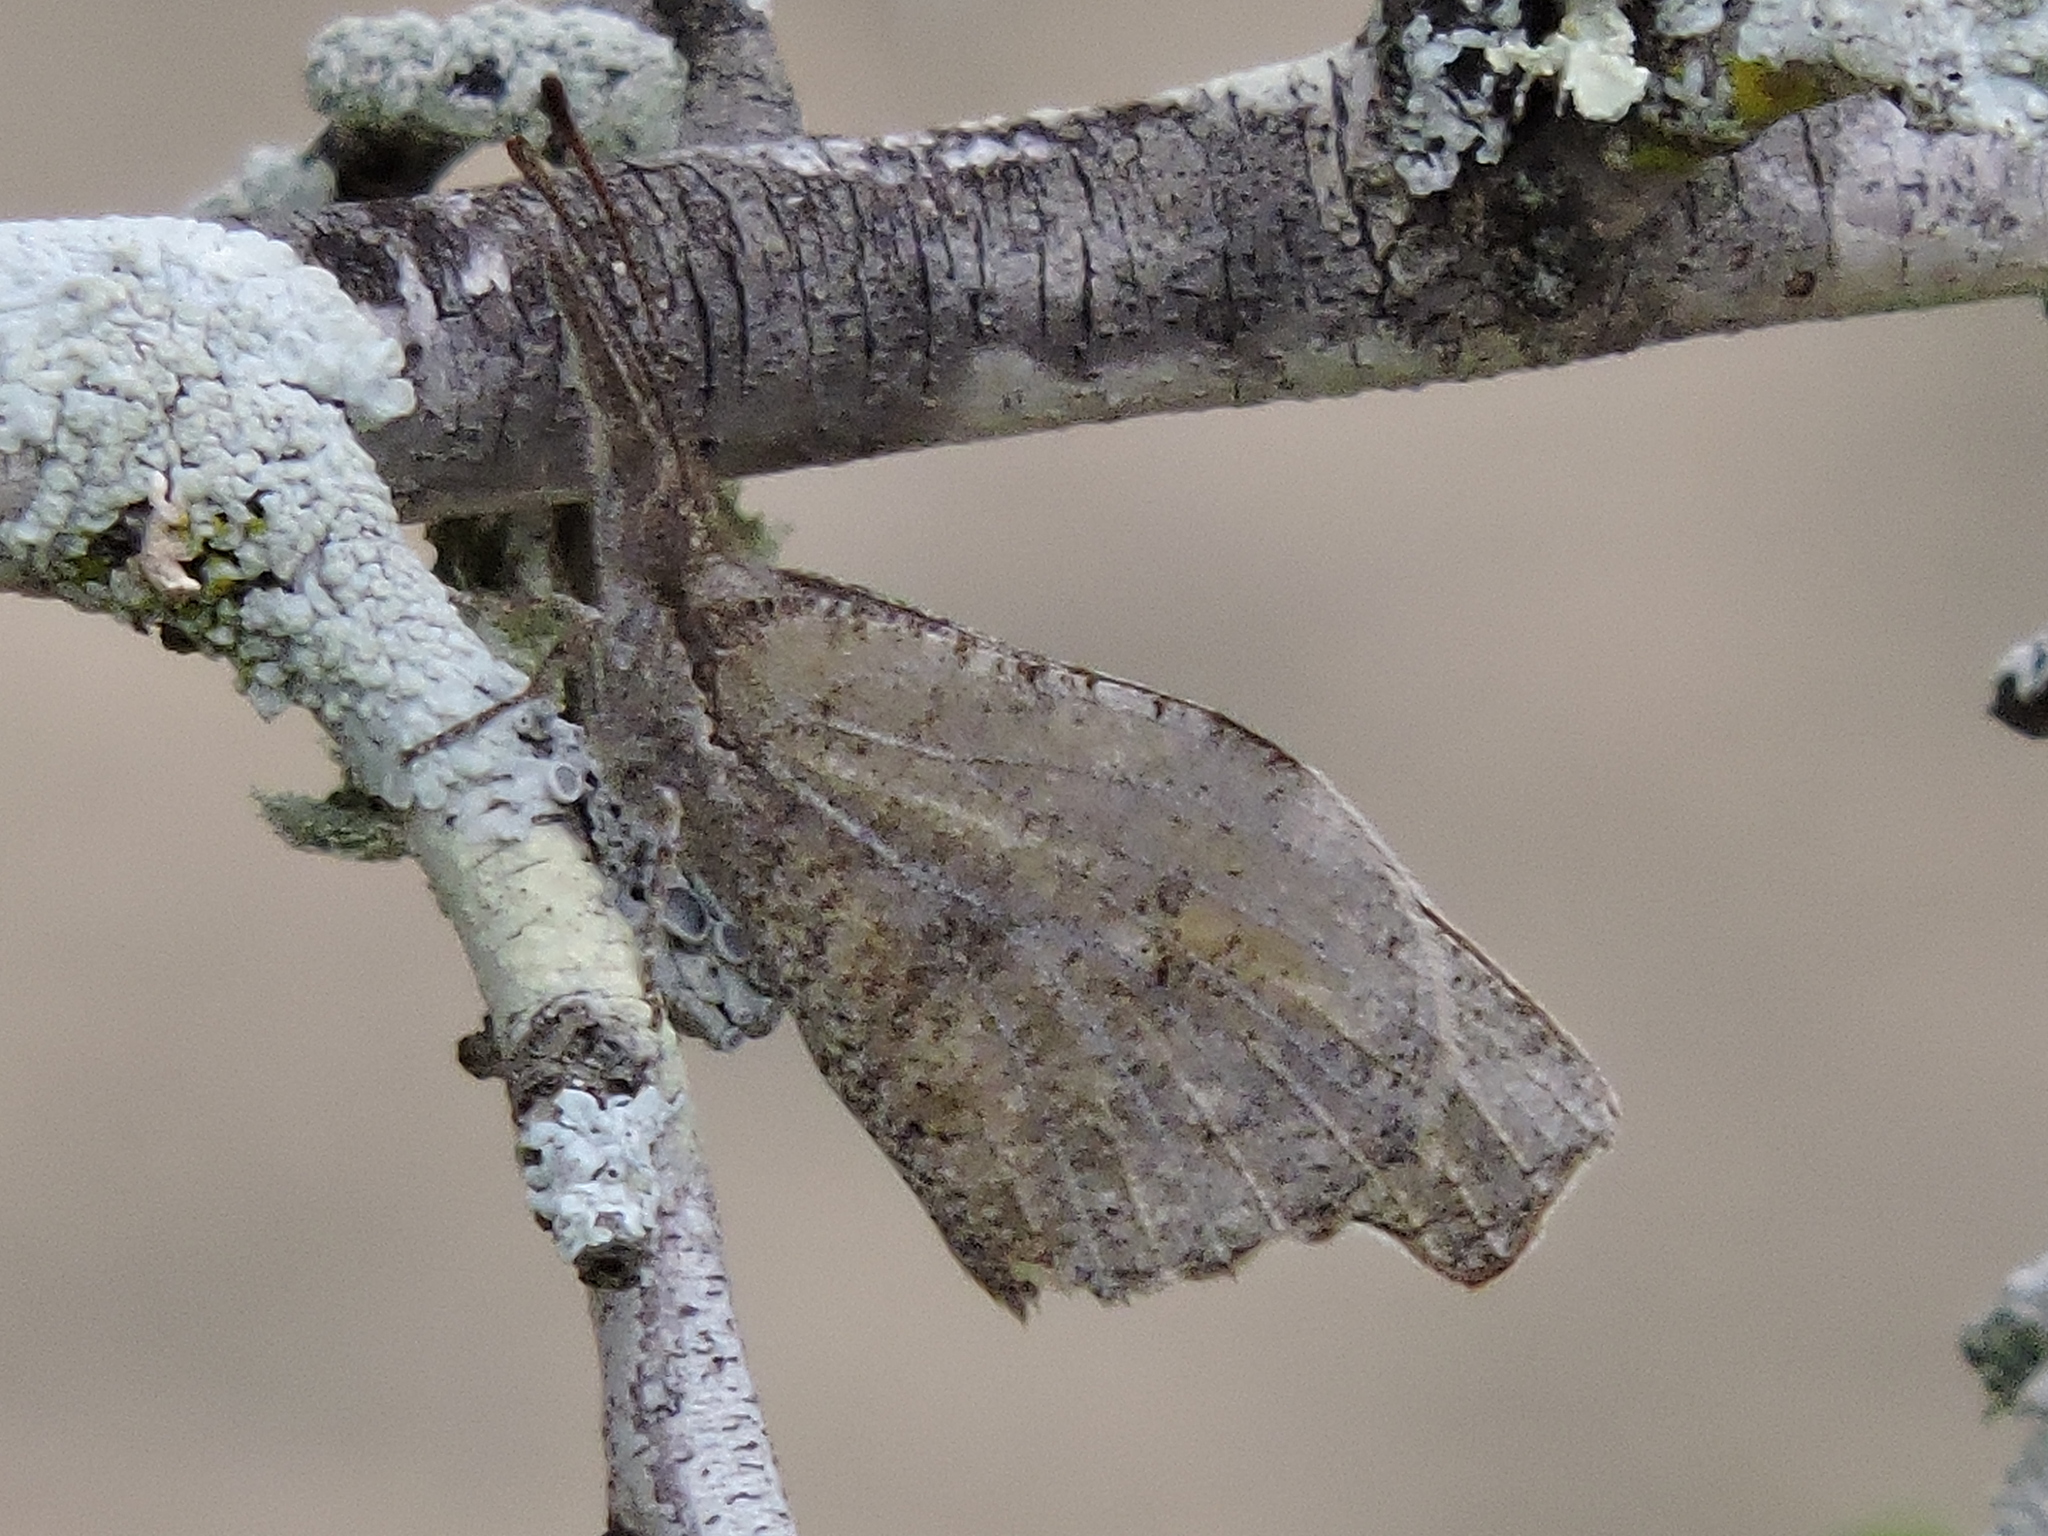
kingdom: Animalia
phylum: Arthropoda
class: Insecta
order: Lepidoptera
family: Nymphalidae
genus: Libytheana
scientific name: Libytheana carinenta
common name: American snout
